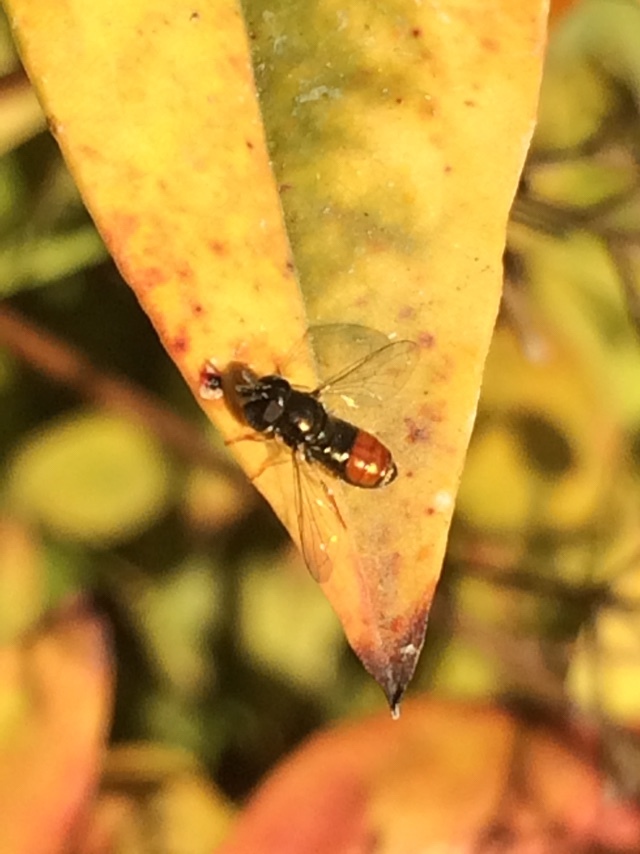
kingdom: Animalia
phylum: Arthropoda
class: Insecta
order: Diptera
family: Syrphidae
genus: Paragus
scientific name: Paragus haemorrhous
